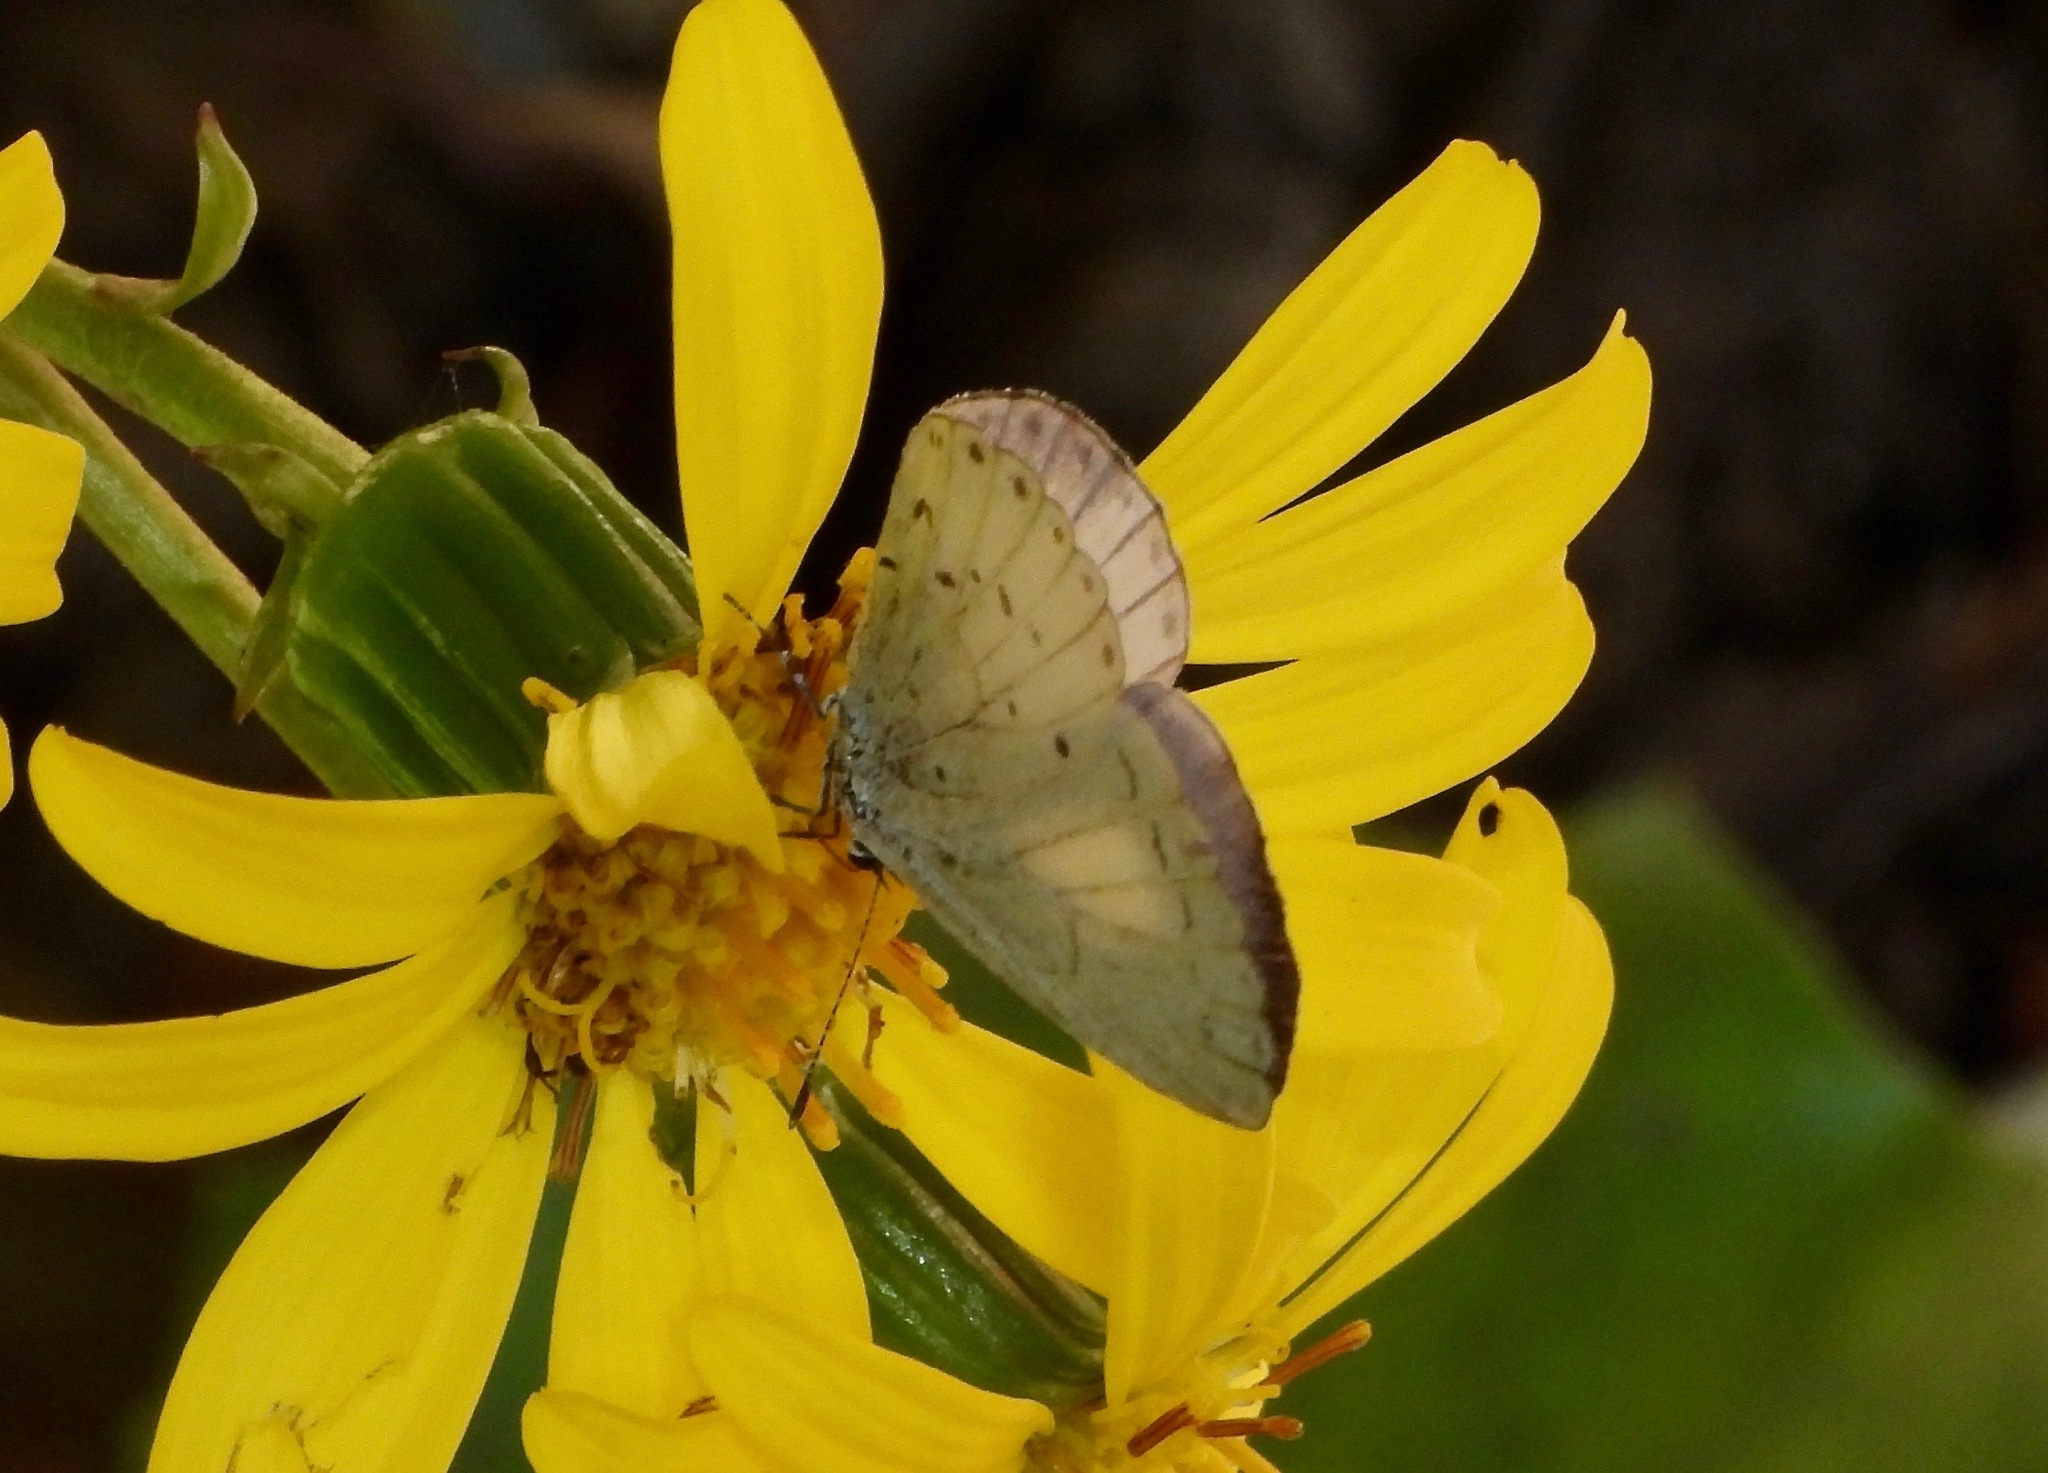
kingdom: Animalia
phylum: Arthropoda
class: Insecta
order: Lepidoptera
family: Lycaenidae
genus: Udara
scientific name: Udara albocaerulea
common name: Albocerulean
